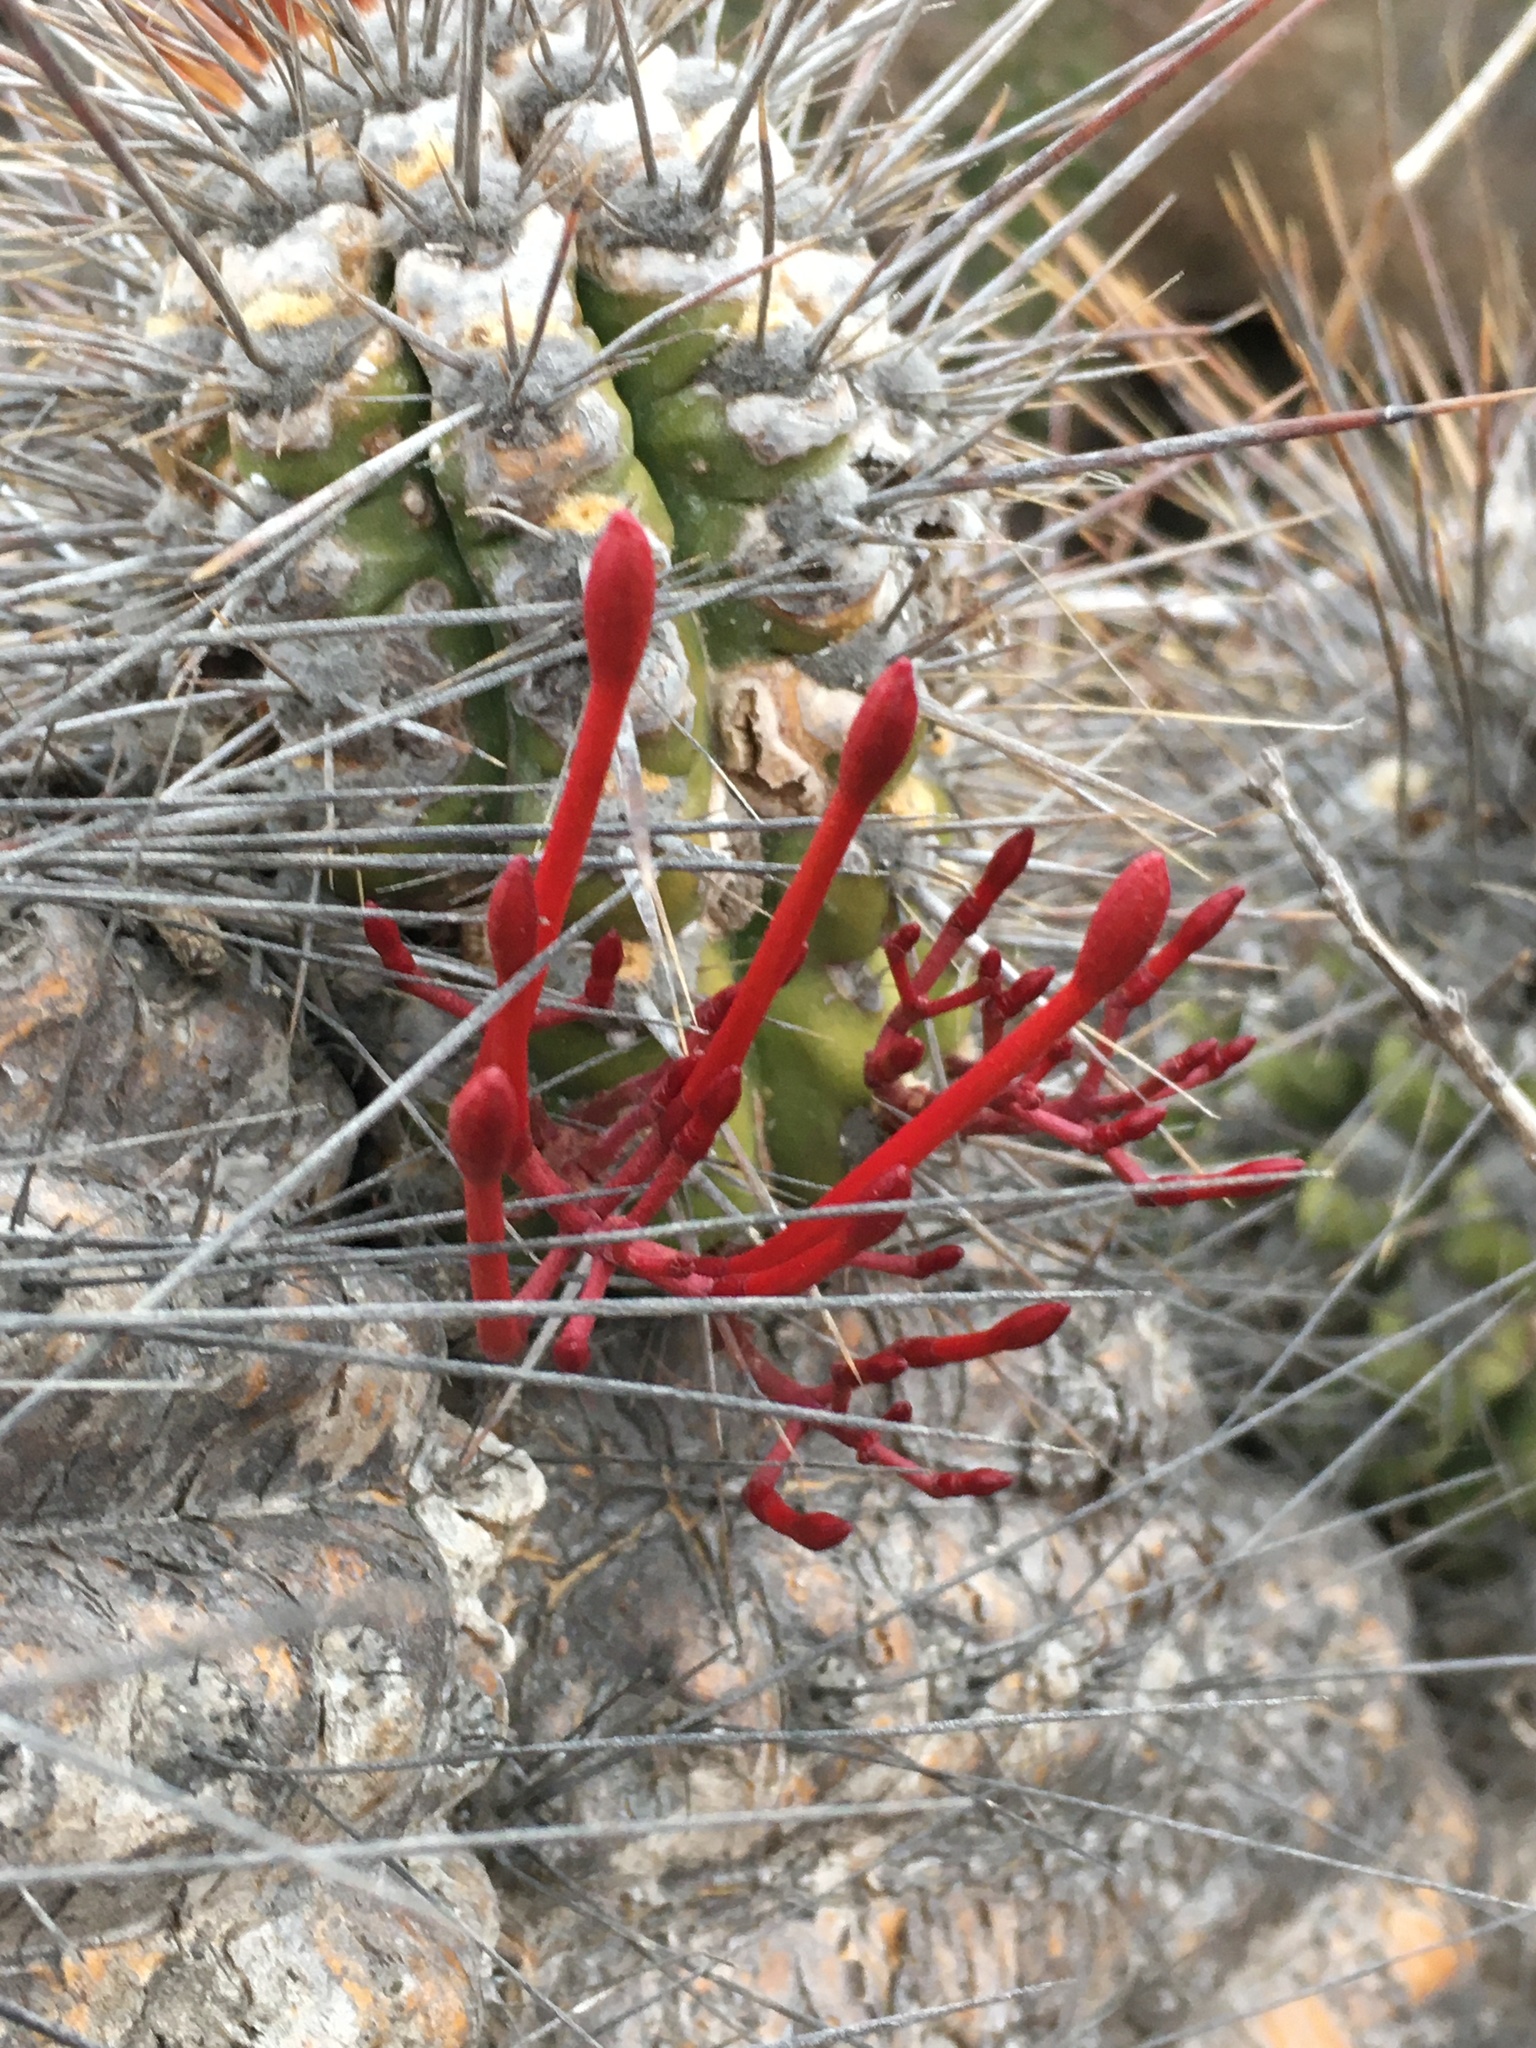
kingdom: Plantae
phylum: Tracheophyta
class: Magnoliopsida
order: Santalales
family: Loranthaceae
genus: Tristerix
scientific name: Tristerix aphyllus
